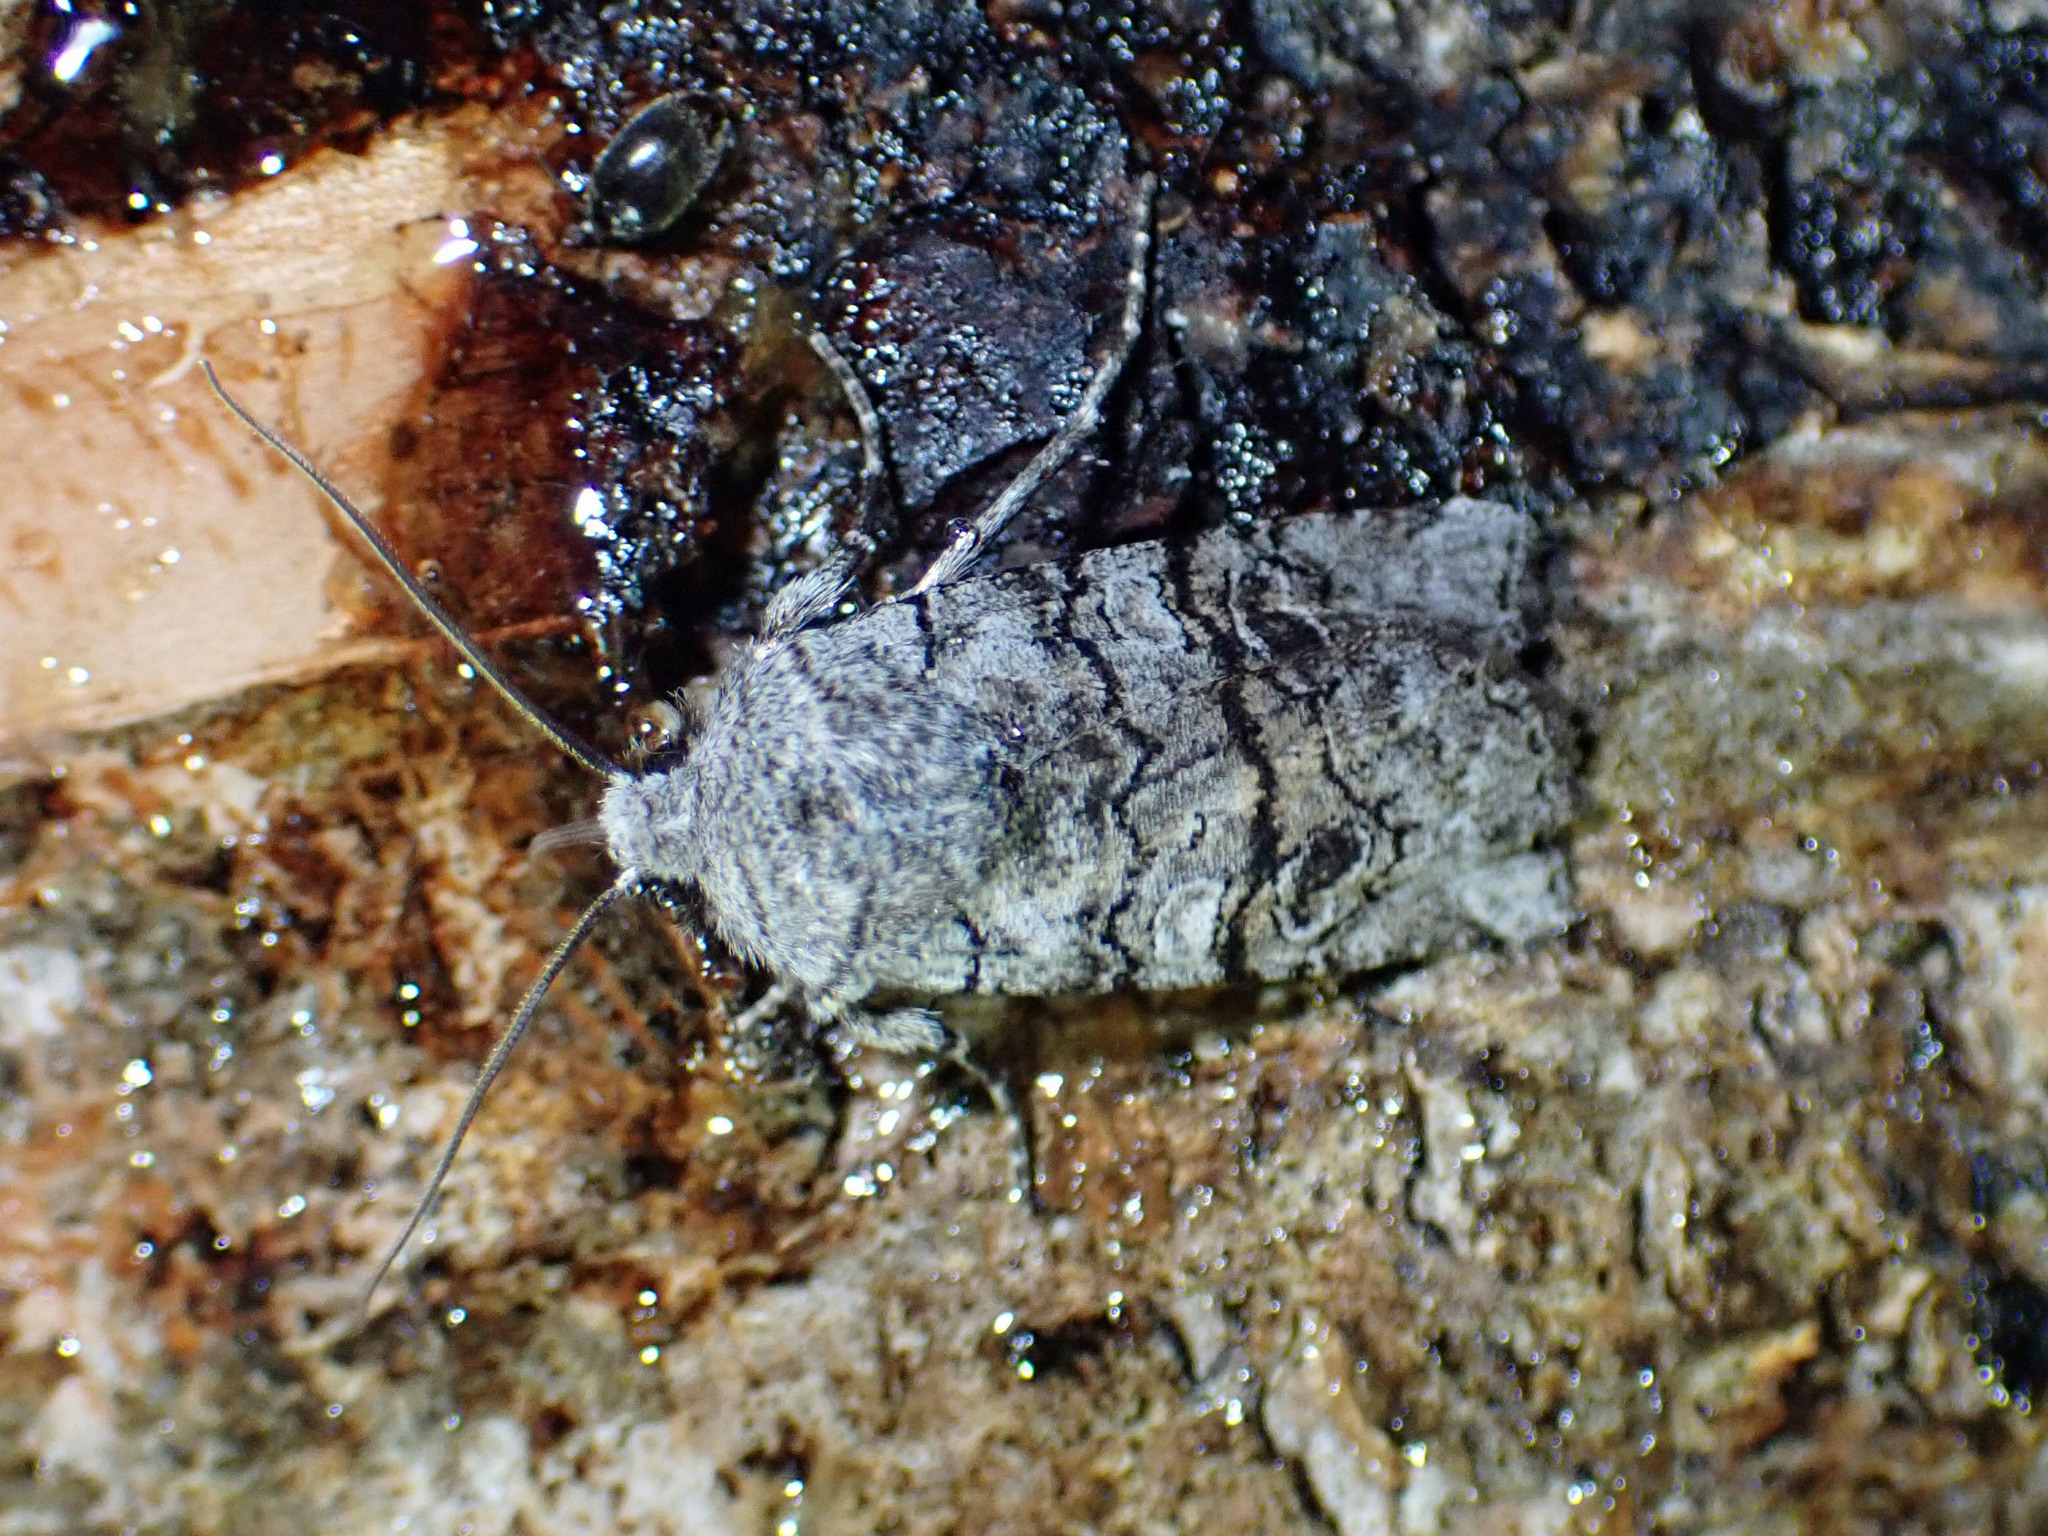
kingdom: Animalia
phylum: Arthropoda
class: Insecta
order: Lepidoptera
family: Noctuidae
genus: Litholomia
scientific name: Litholomia napaea
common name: False pinion moth
